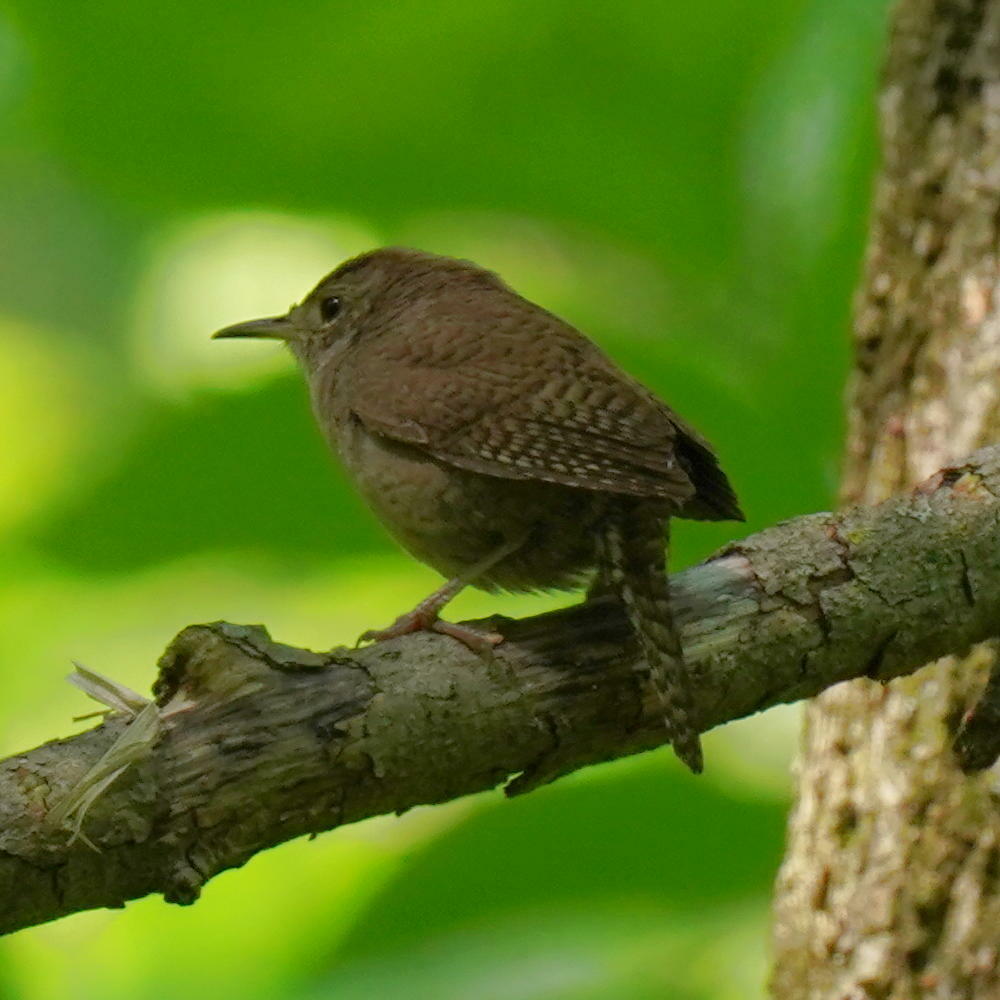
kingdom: Animalia
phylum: Chordata
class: Aves
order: Passeriformes
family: Troglodytidae
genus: Troglodytes
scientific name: Troglodytes aedon
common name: House wren
